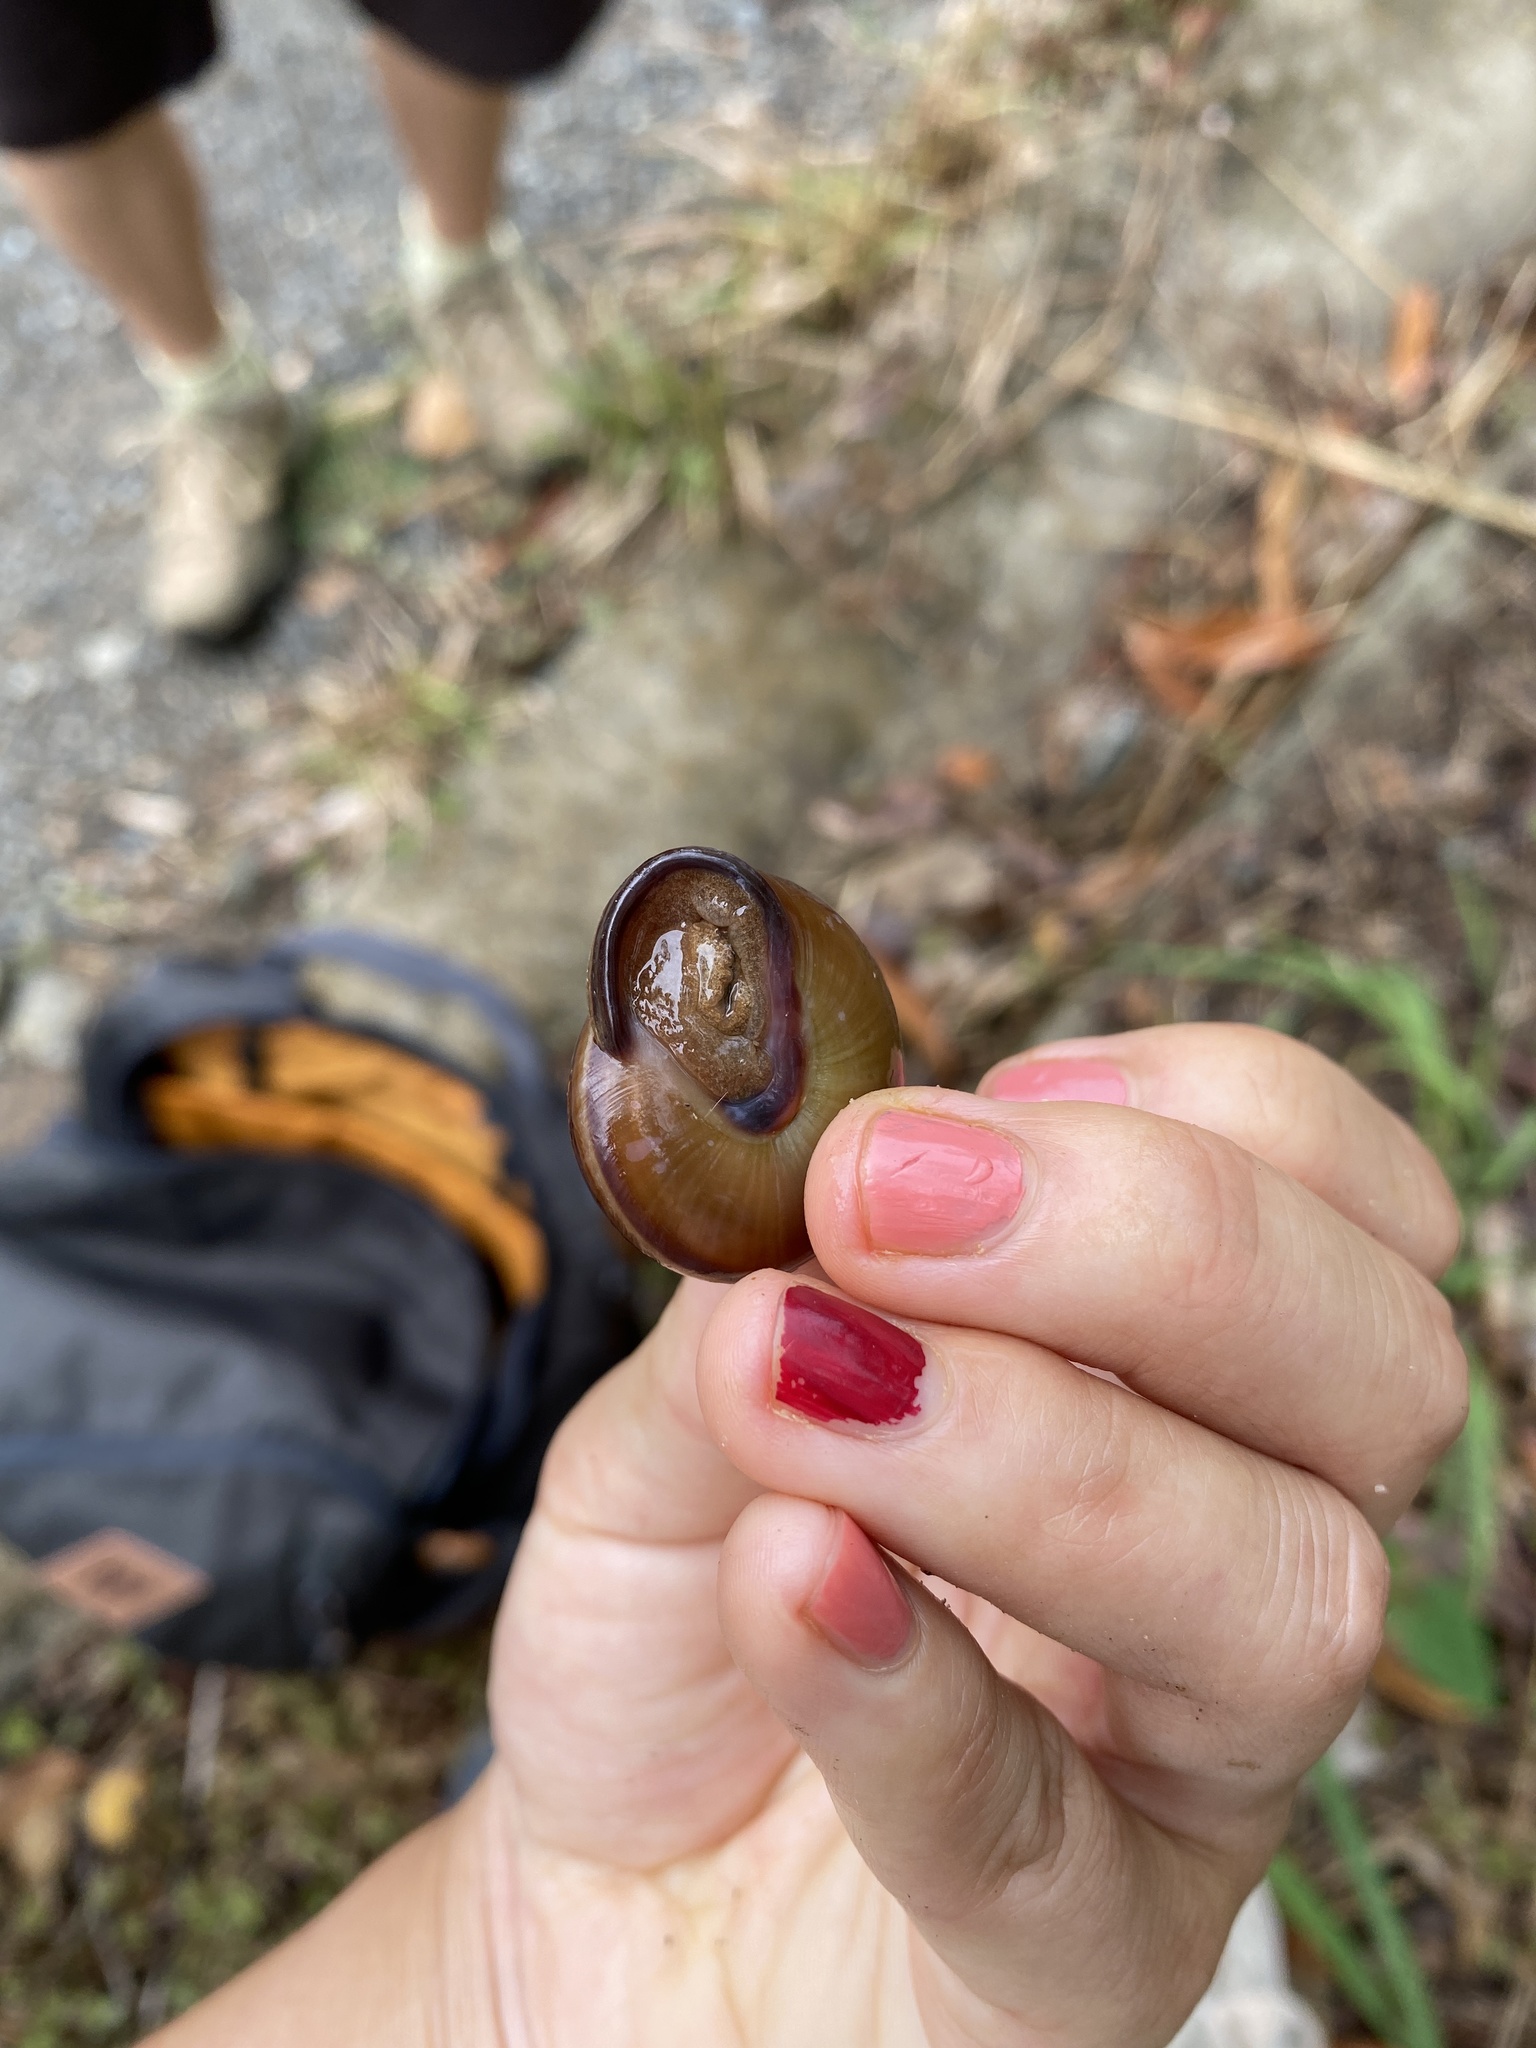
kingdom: Animalia
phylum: Mollusca
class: Gastropoda
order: Stylommatophora
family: Pleurodontidae
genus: Pleurodonte
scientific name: Pleurodonte orbiculata
